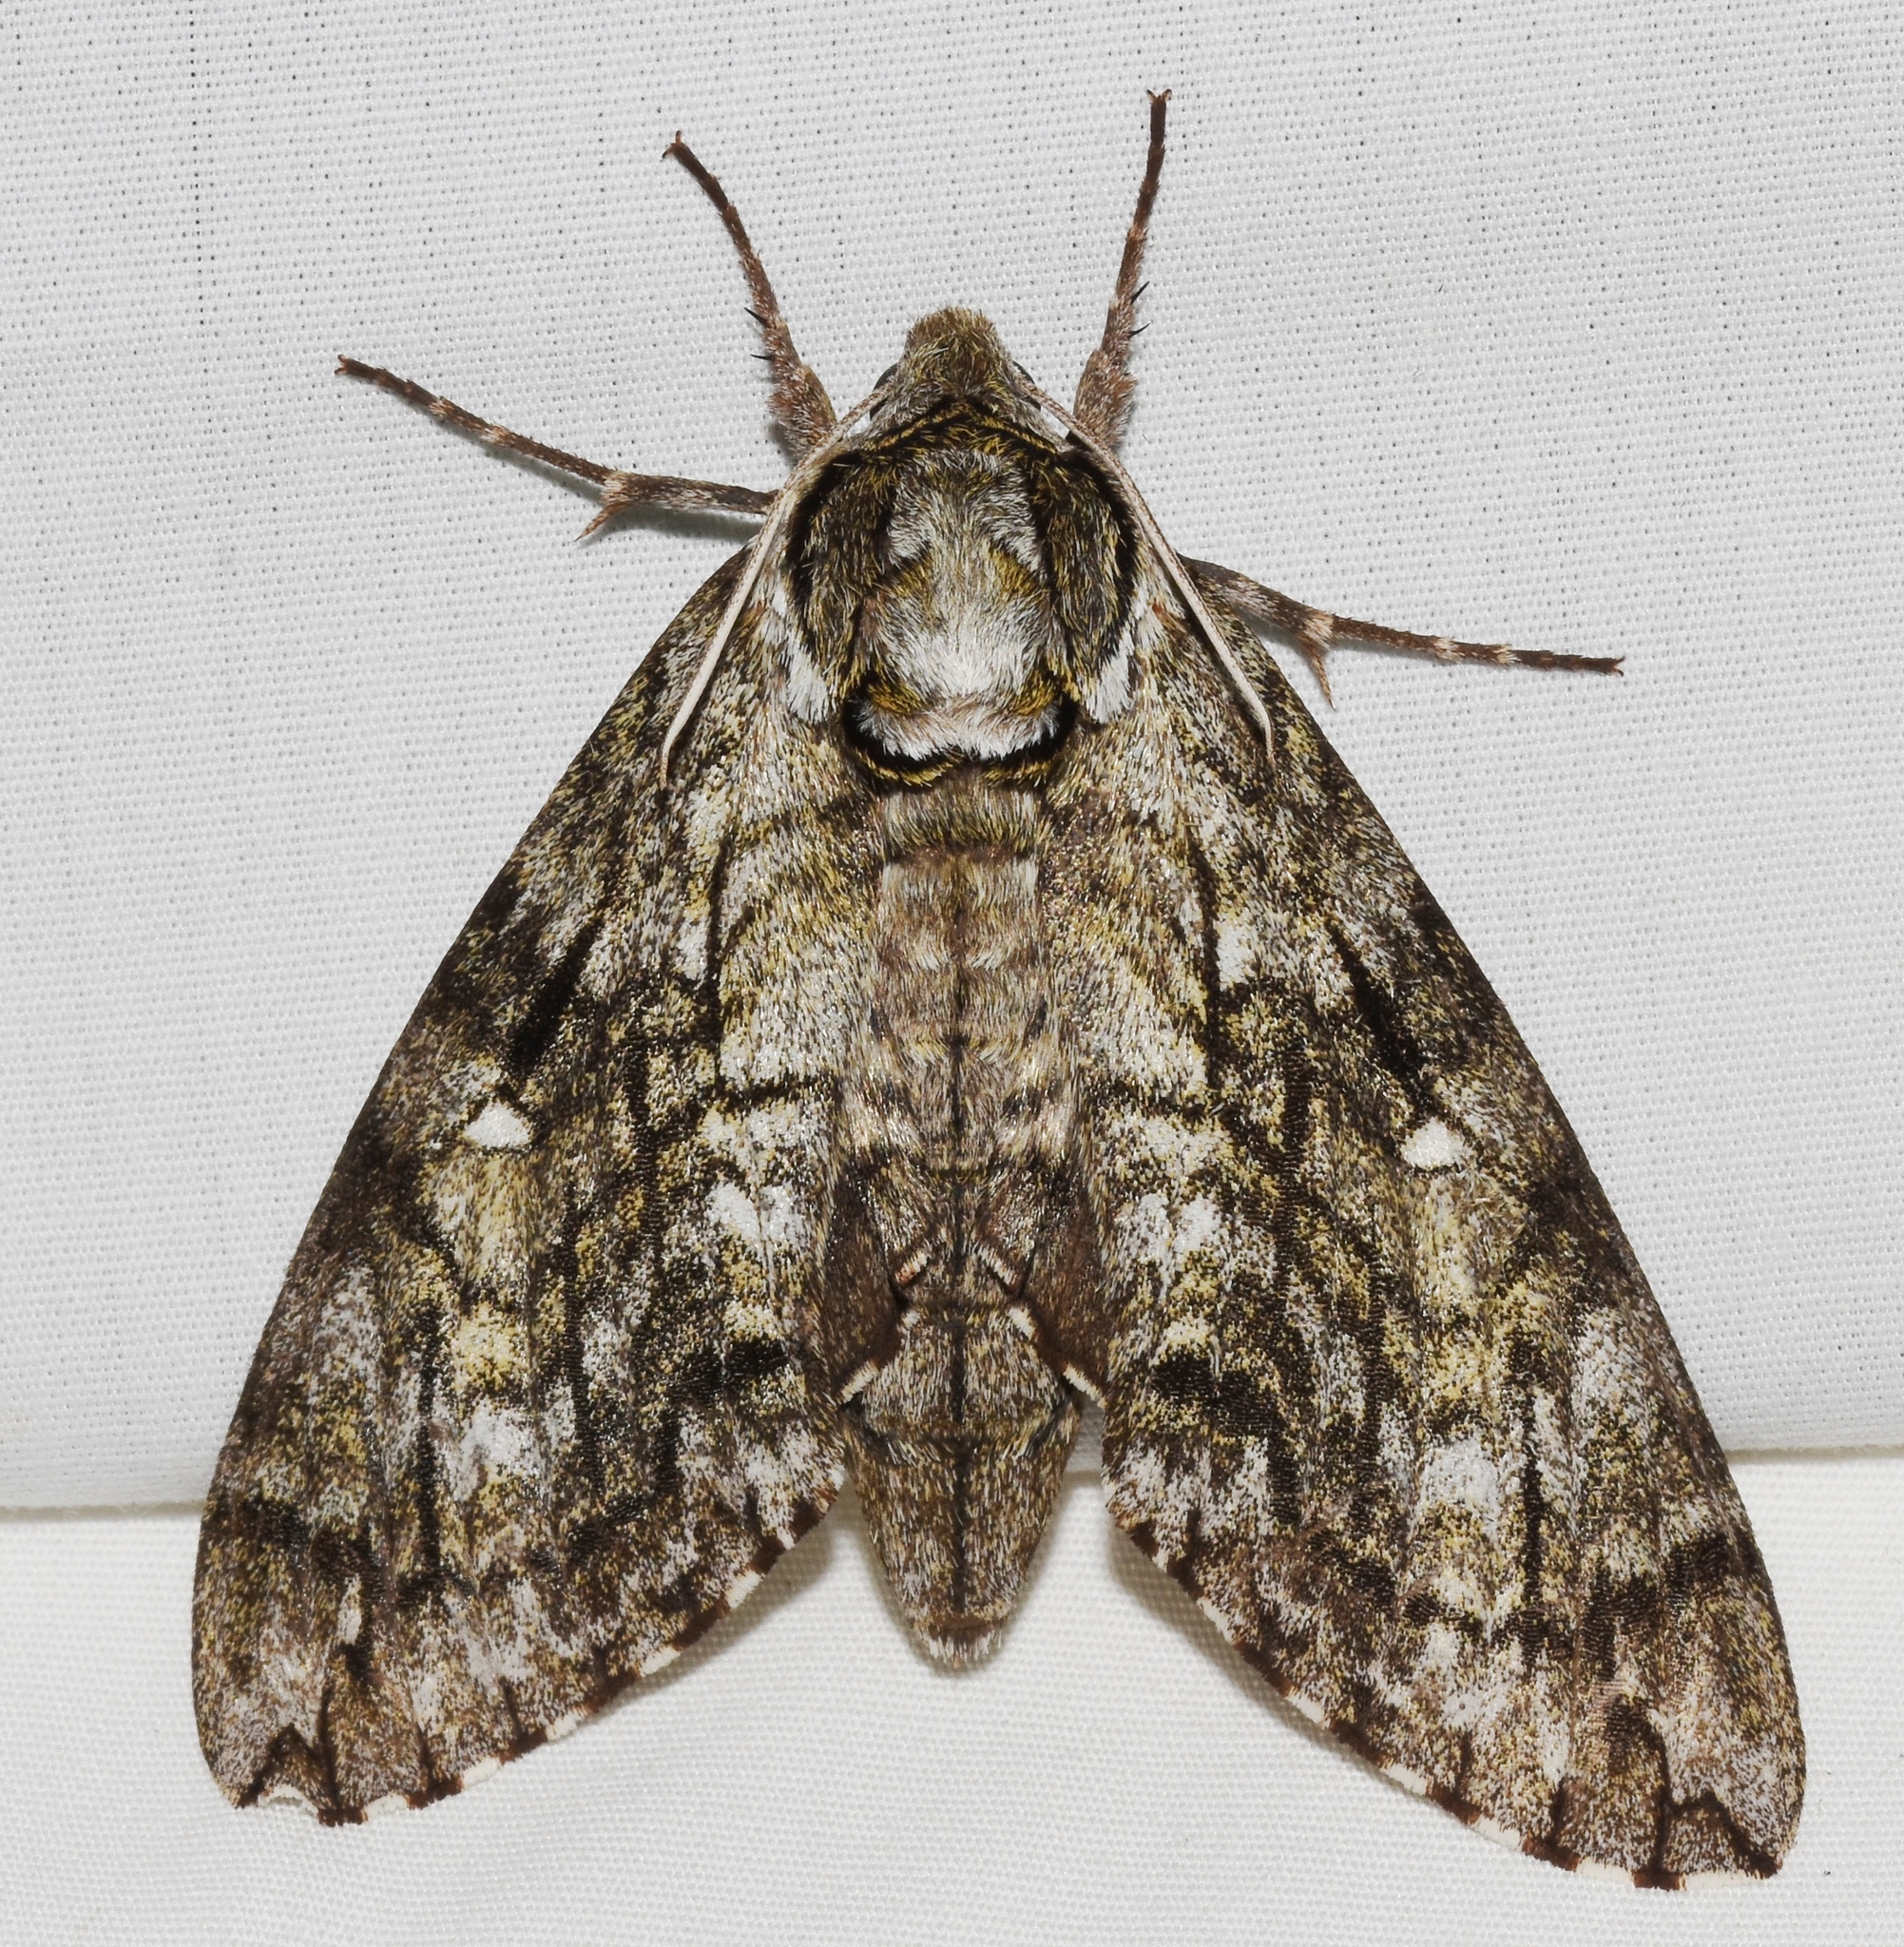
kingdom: Animalia
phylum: Arthropoda
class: Insecta
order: Lepidoptera
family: Sphingidae
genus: Ceratomia
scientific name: Ceratomia undulosa
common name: Waved sphinx
